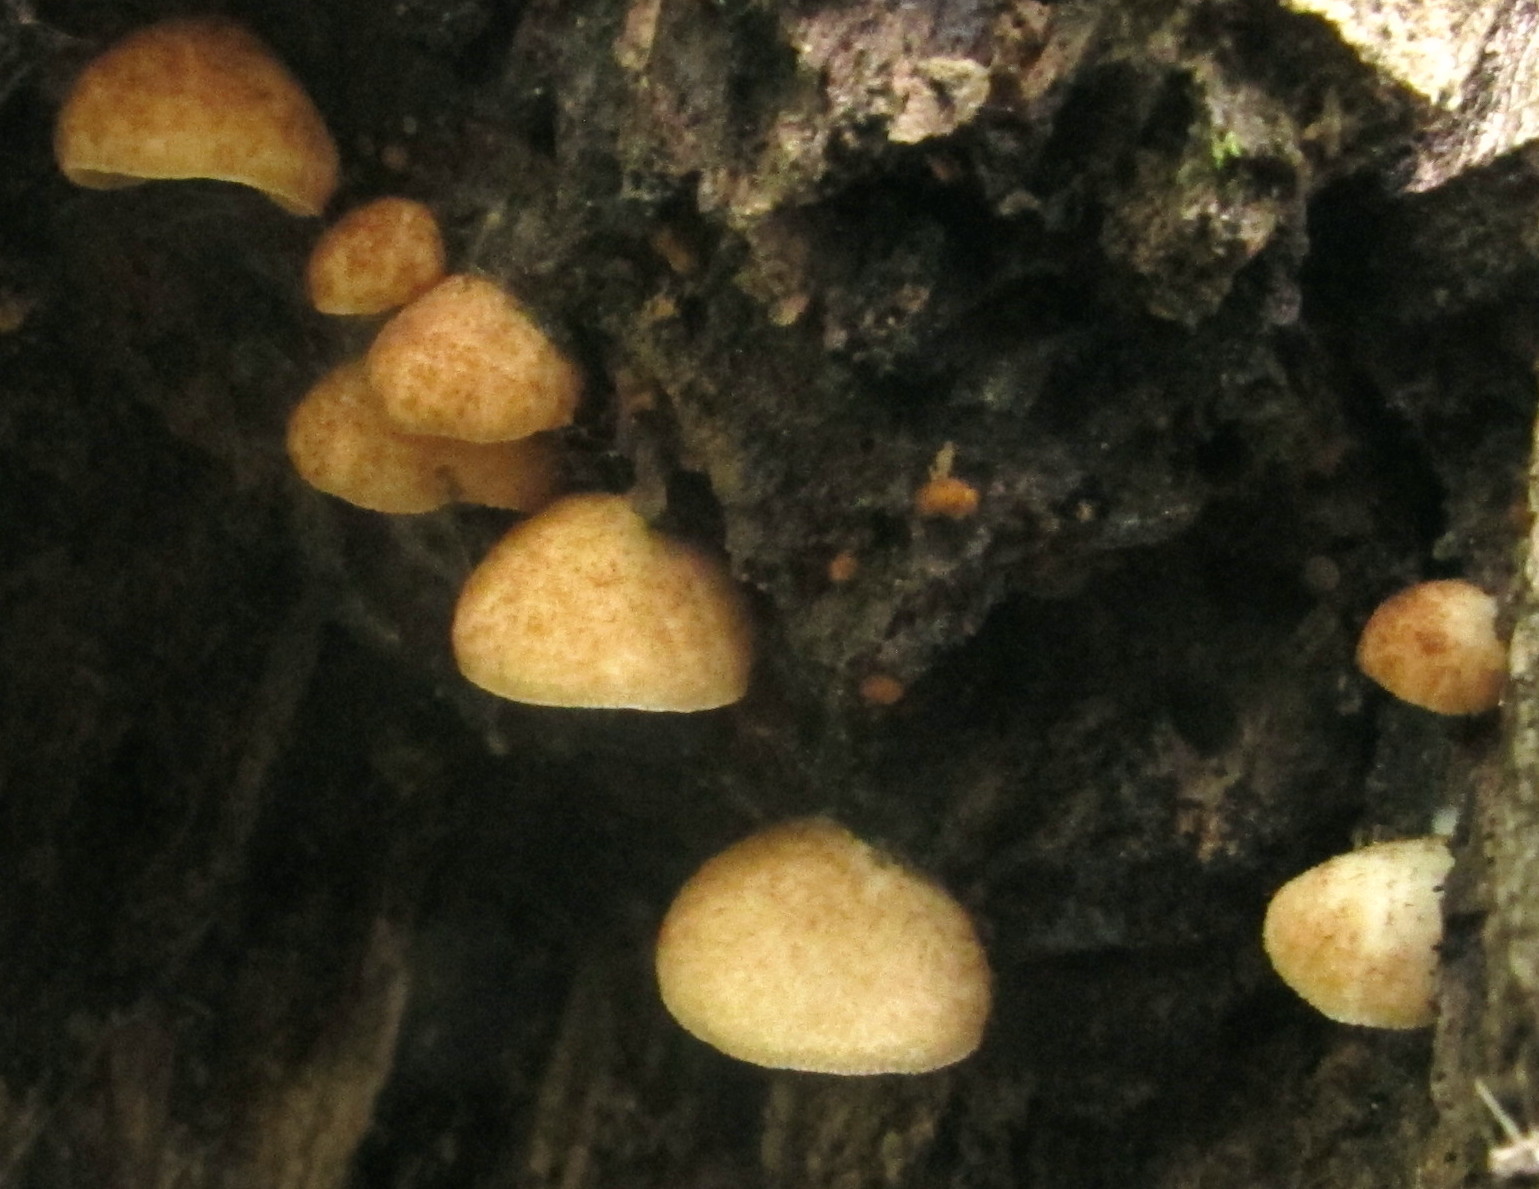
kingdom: Fungi
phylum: Basidiomycota
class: Agaricomycetes
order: Agaricales
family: Crepidotaceae
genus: Crepidotus
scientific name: Crepidotus mollis
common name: Peeling oysterling
